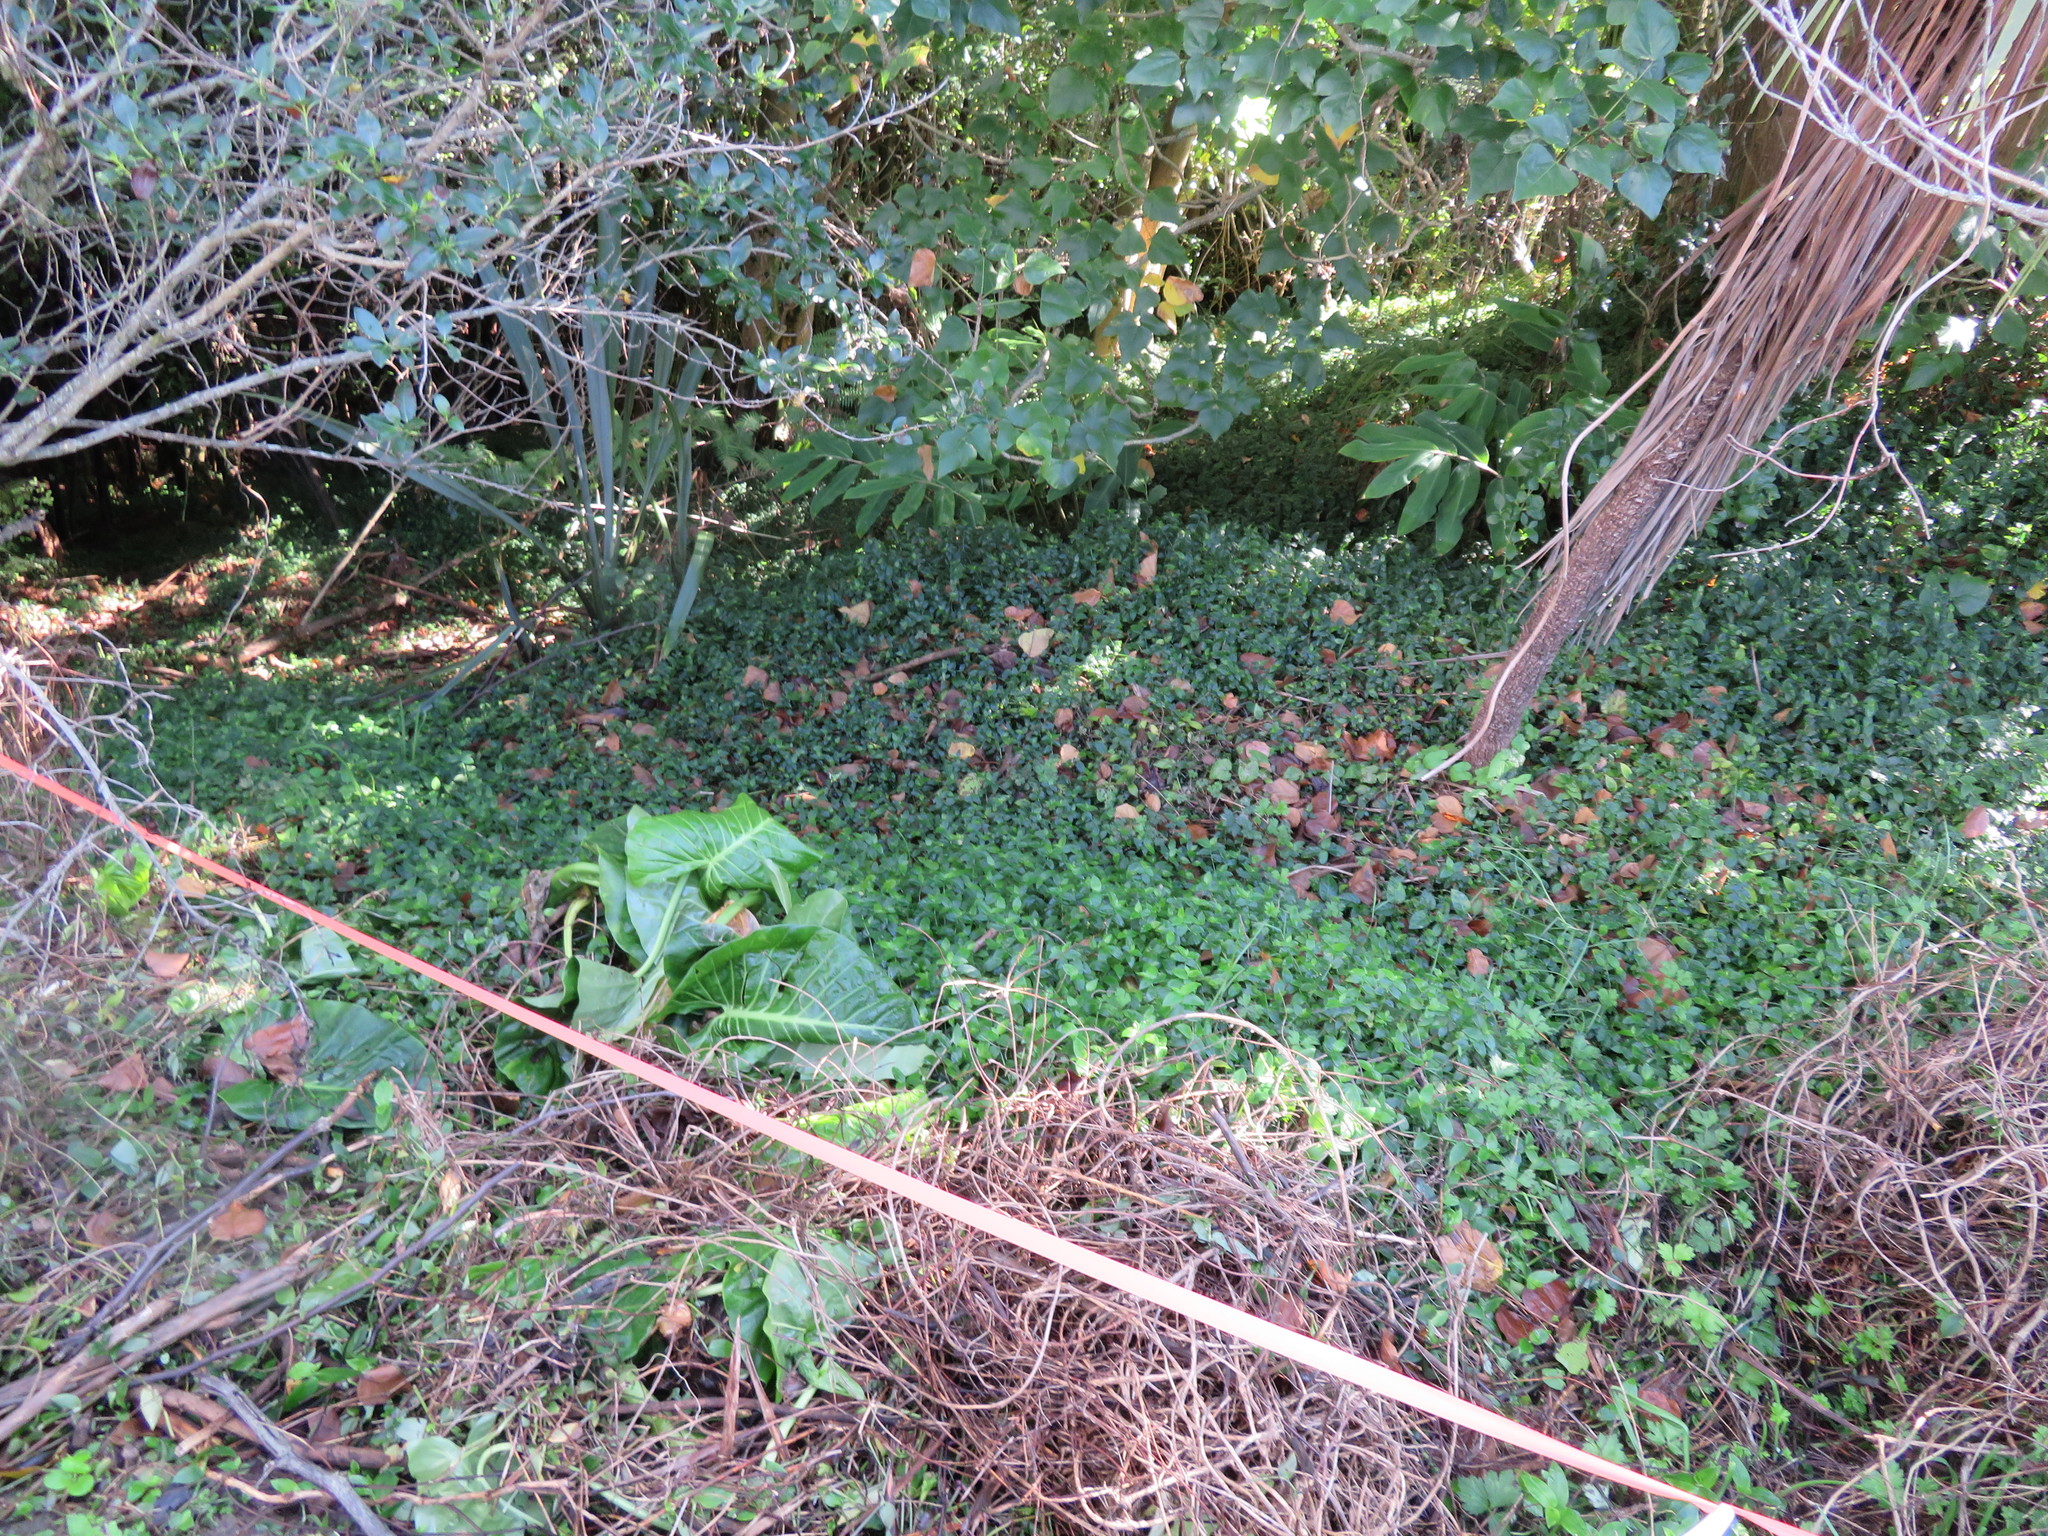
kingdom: Plantae
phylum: Tracheophyta
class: Liliopsida
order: Zingiberales
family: Zingiberaceae
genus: Hedychium
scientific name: Hedychium gardnerianum
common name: Himalayan ginger
